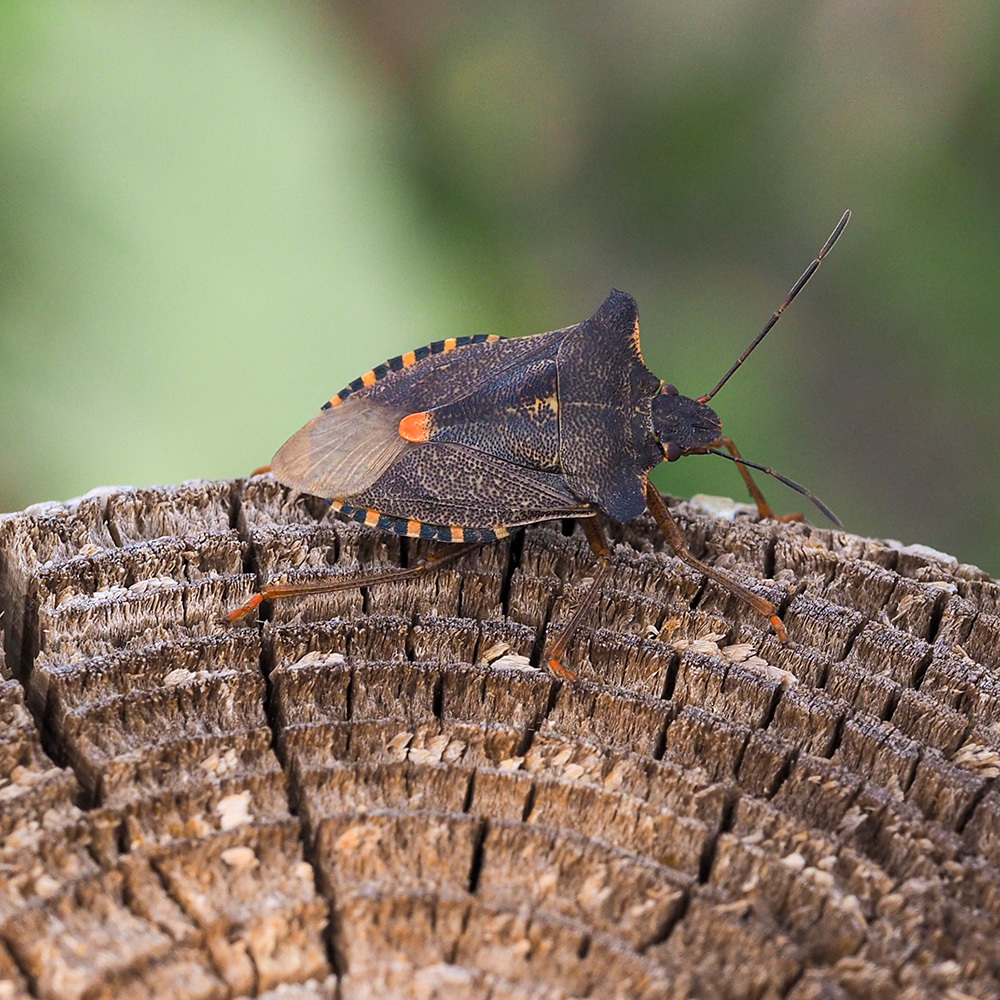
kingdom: Animalia
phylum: Arthropoda
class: Insecta
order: Hemiptera
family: Pentatomidae
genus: Pentatoma
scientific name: Pentatoma rufipes
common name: Forest bug
